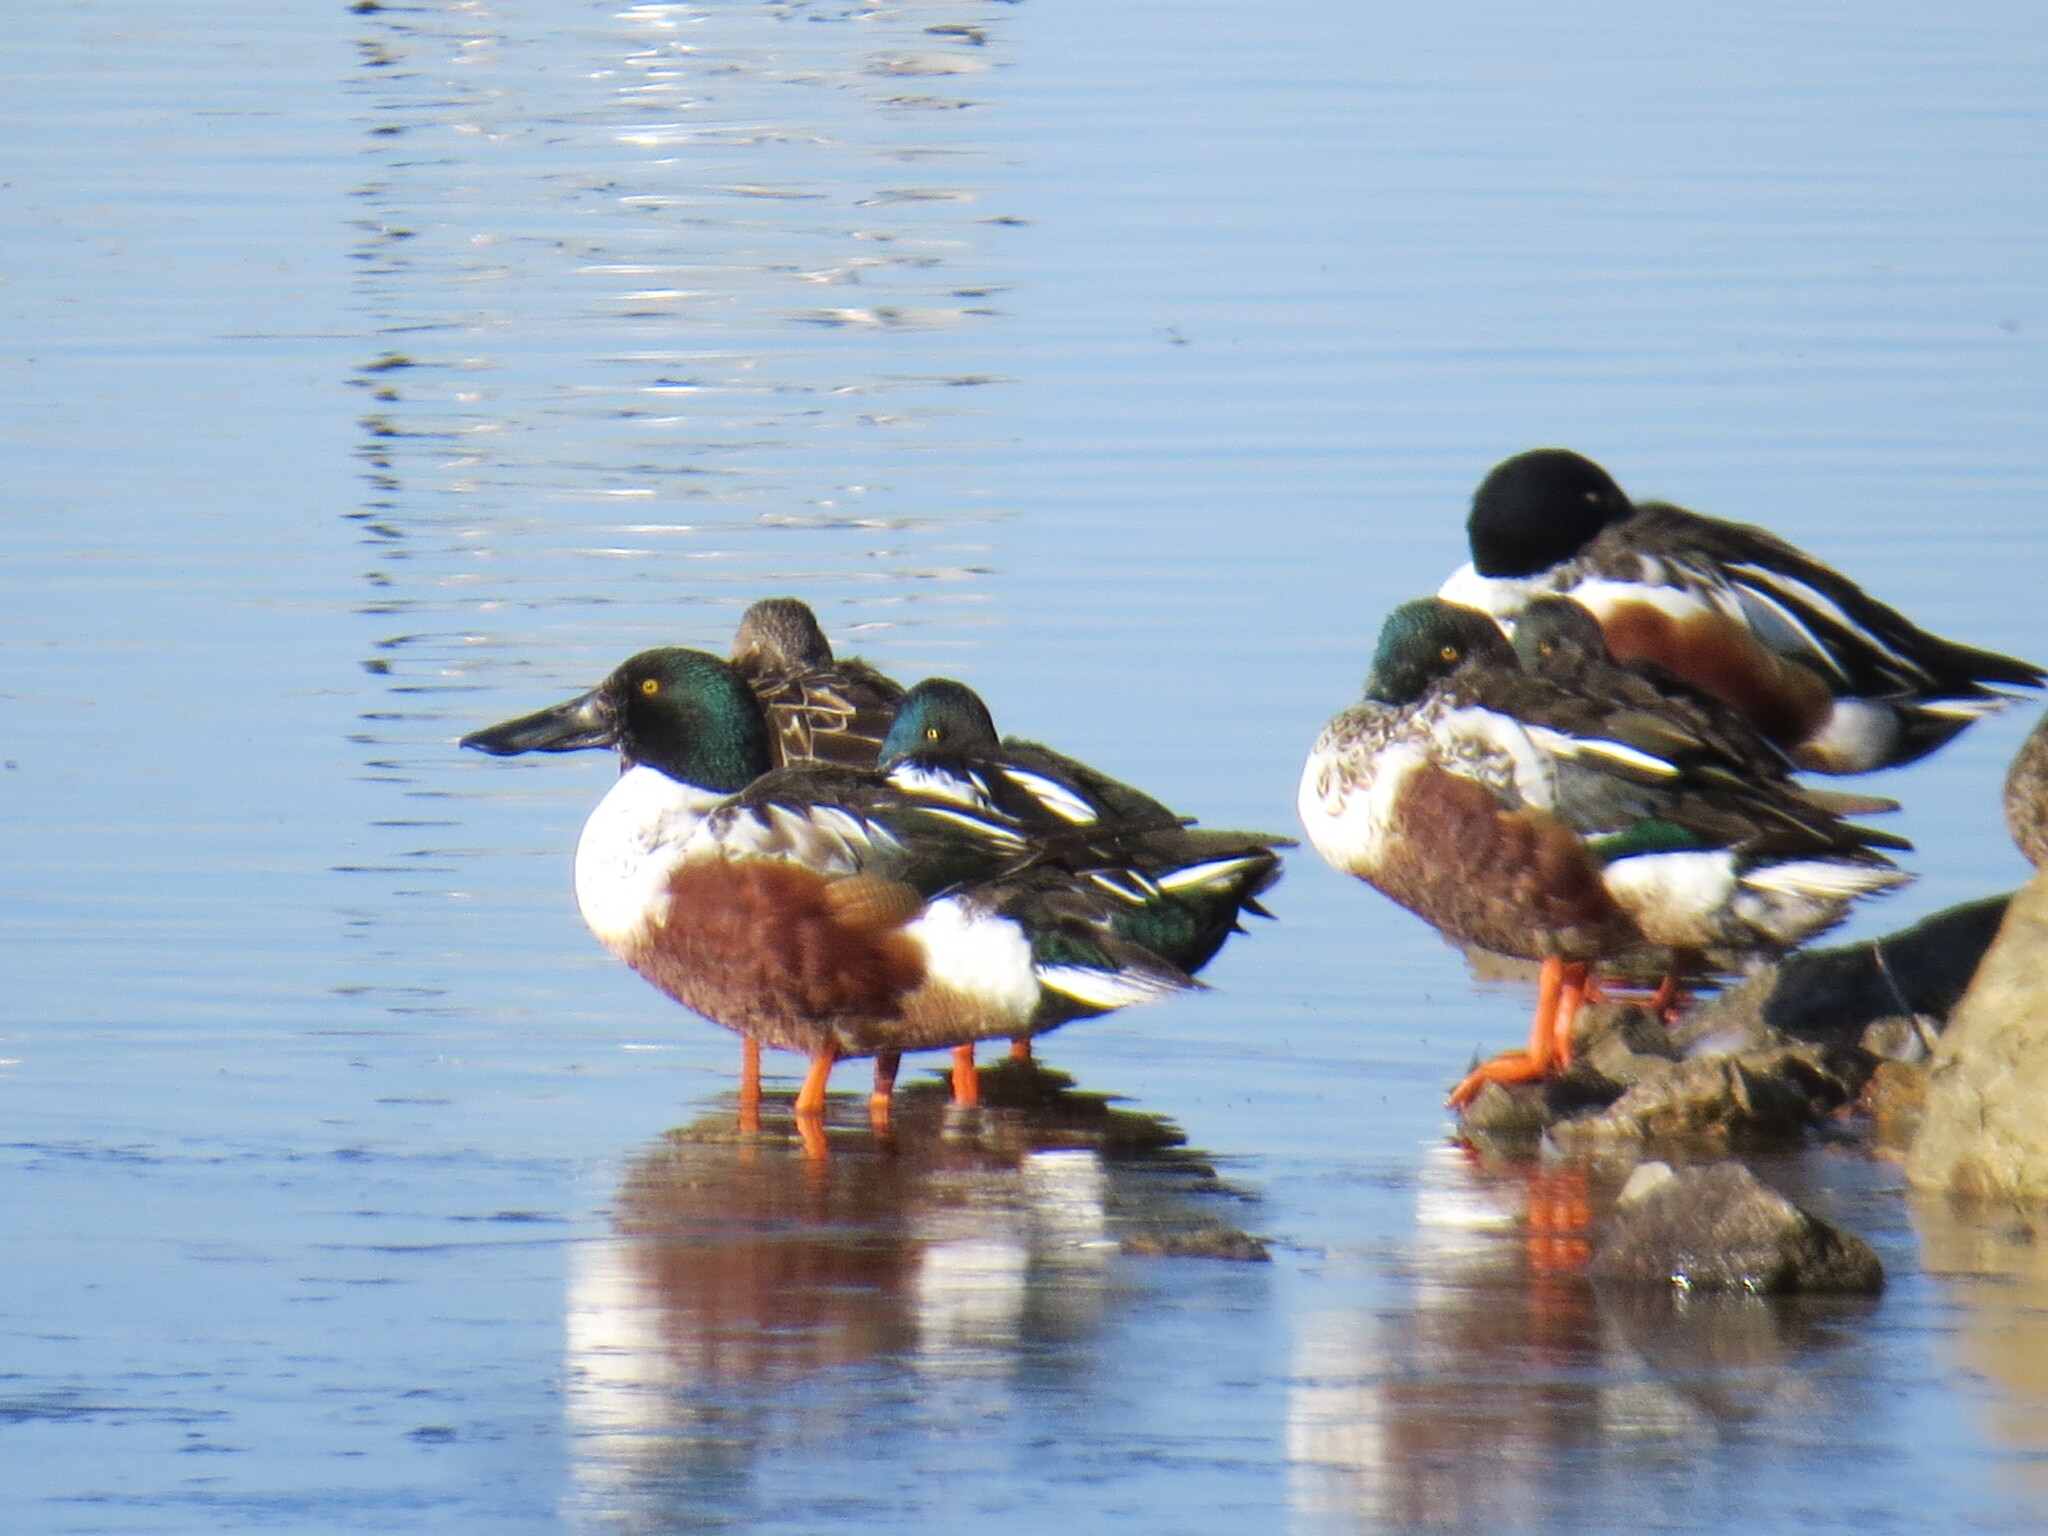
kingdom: Animalia
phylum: Chordata
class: Aves
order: Anseriformes
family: Anatidae
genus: Spatula
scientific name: Spatula clypeata
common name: Northern shoveler
